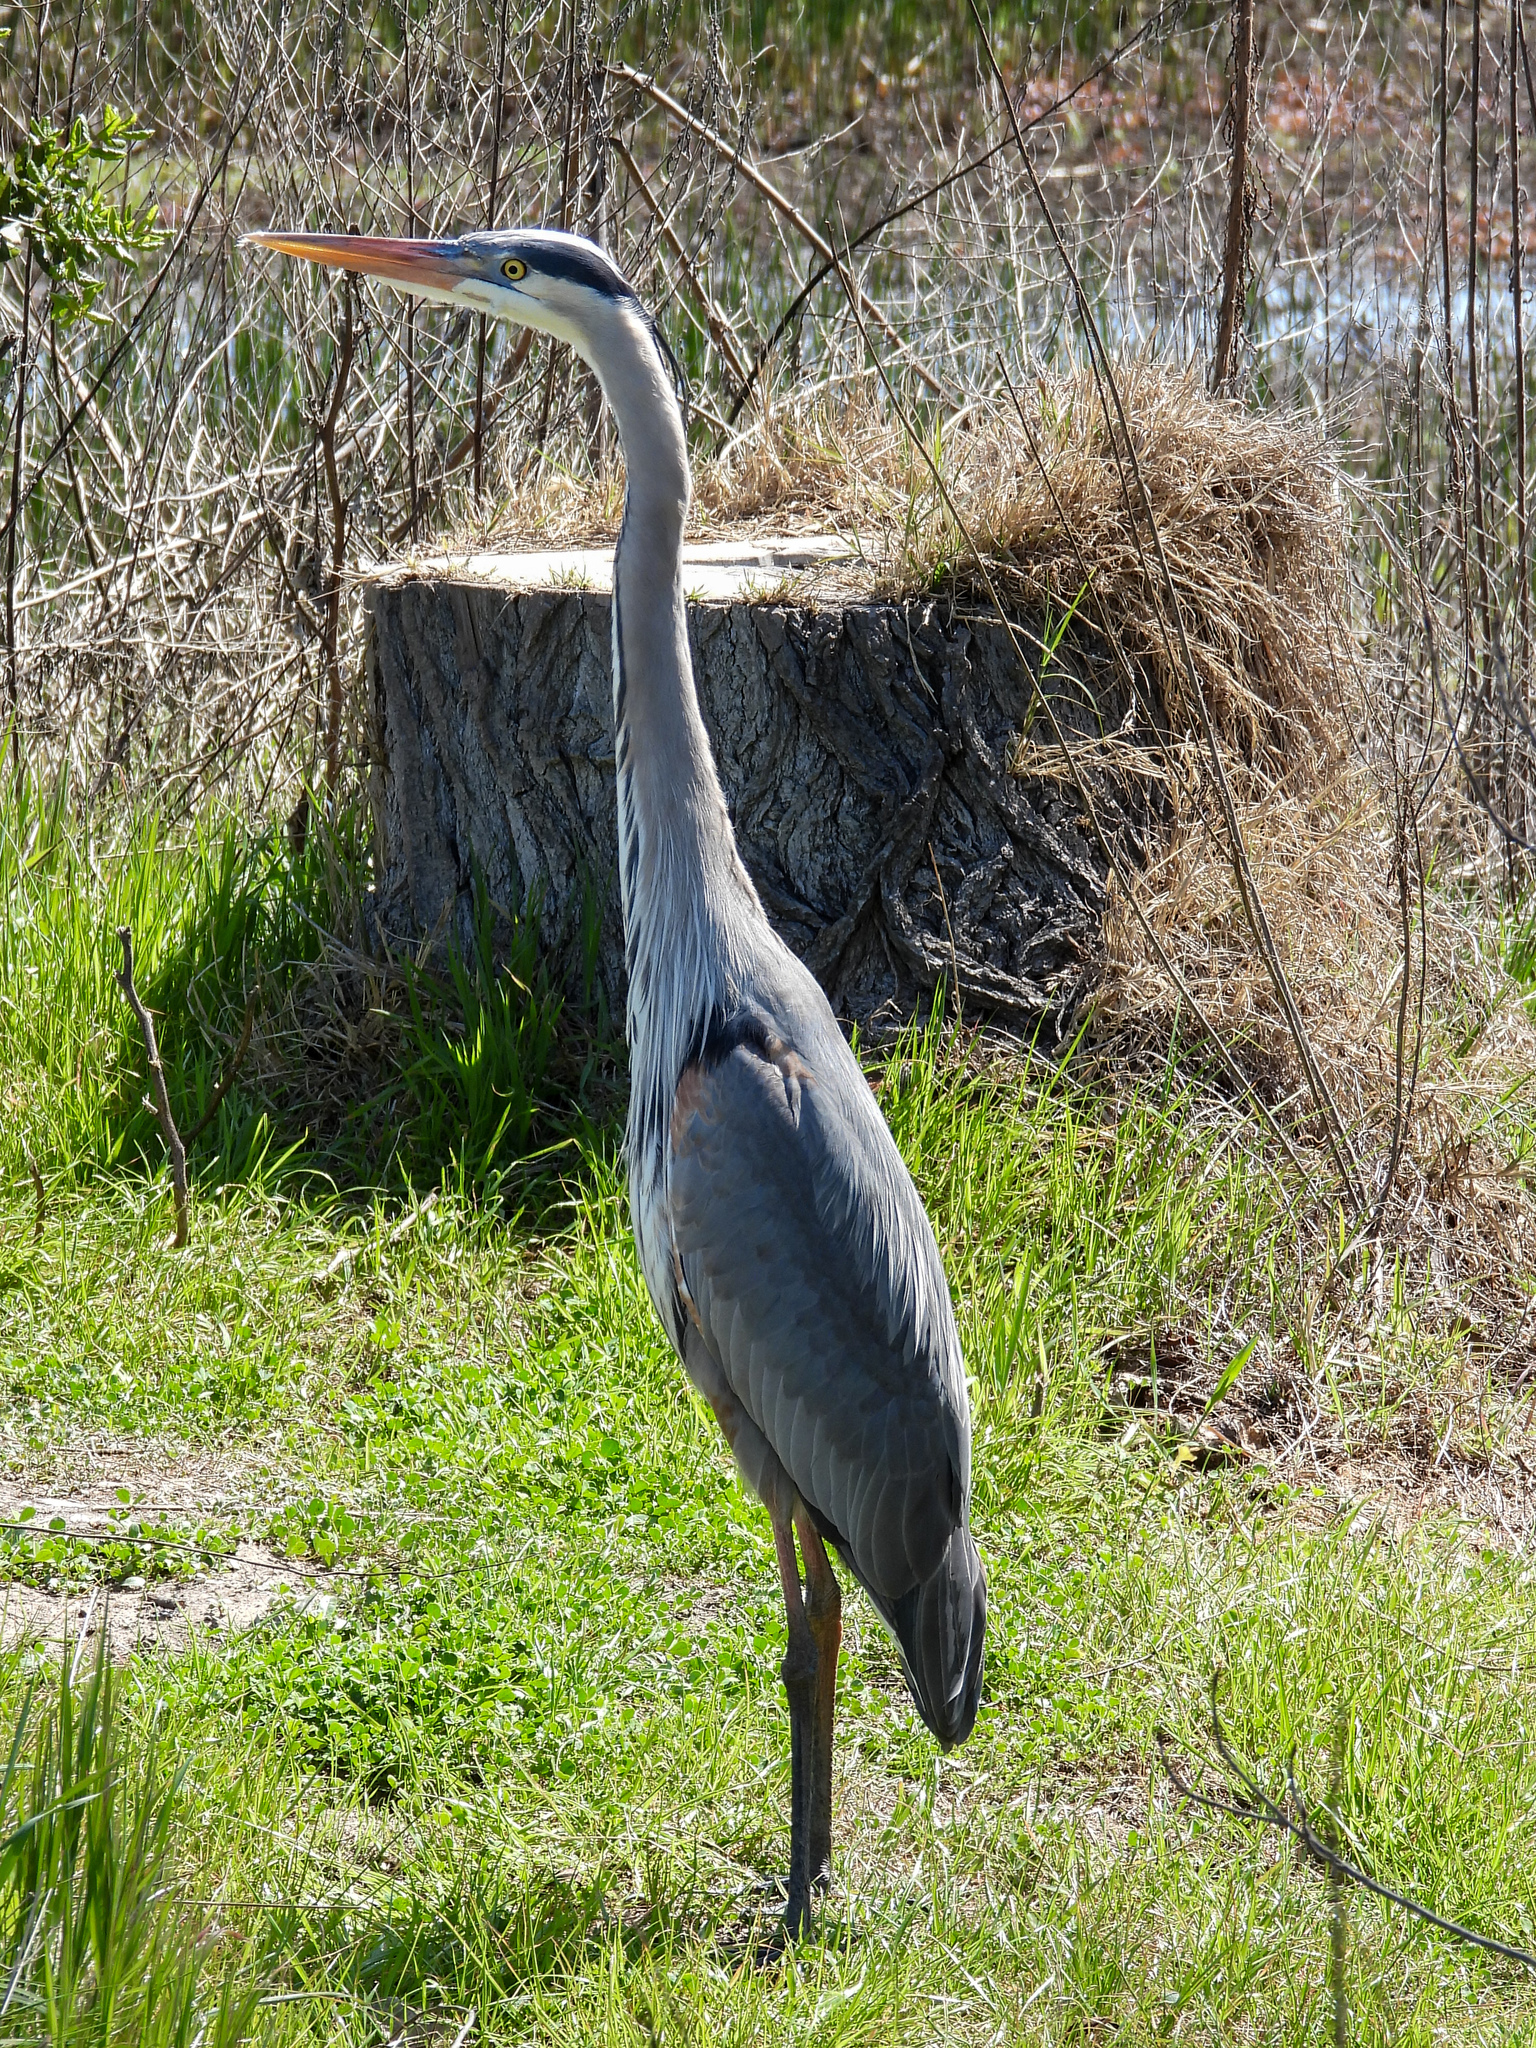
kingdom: Animalia
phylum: Chordata
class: Aves
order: Pelecaniformes
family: Ardeidae
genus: Ardea
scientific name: Ardea herodias
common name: Great blue heron
